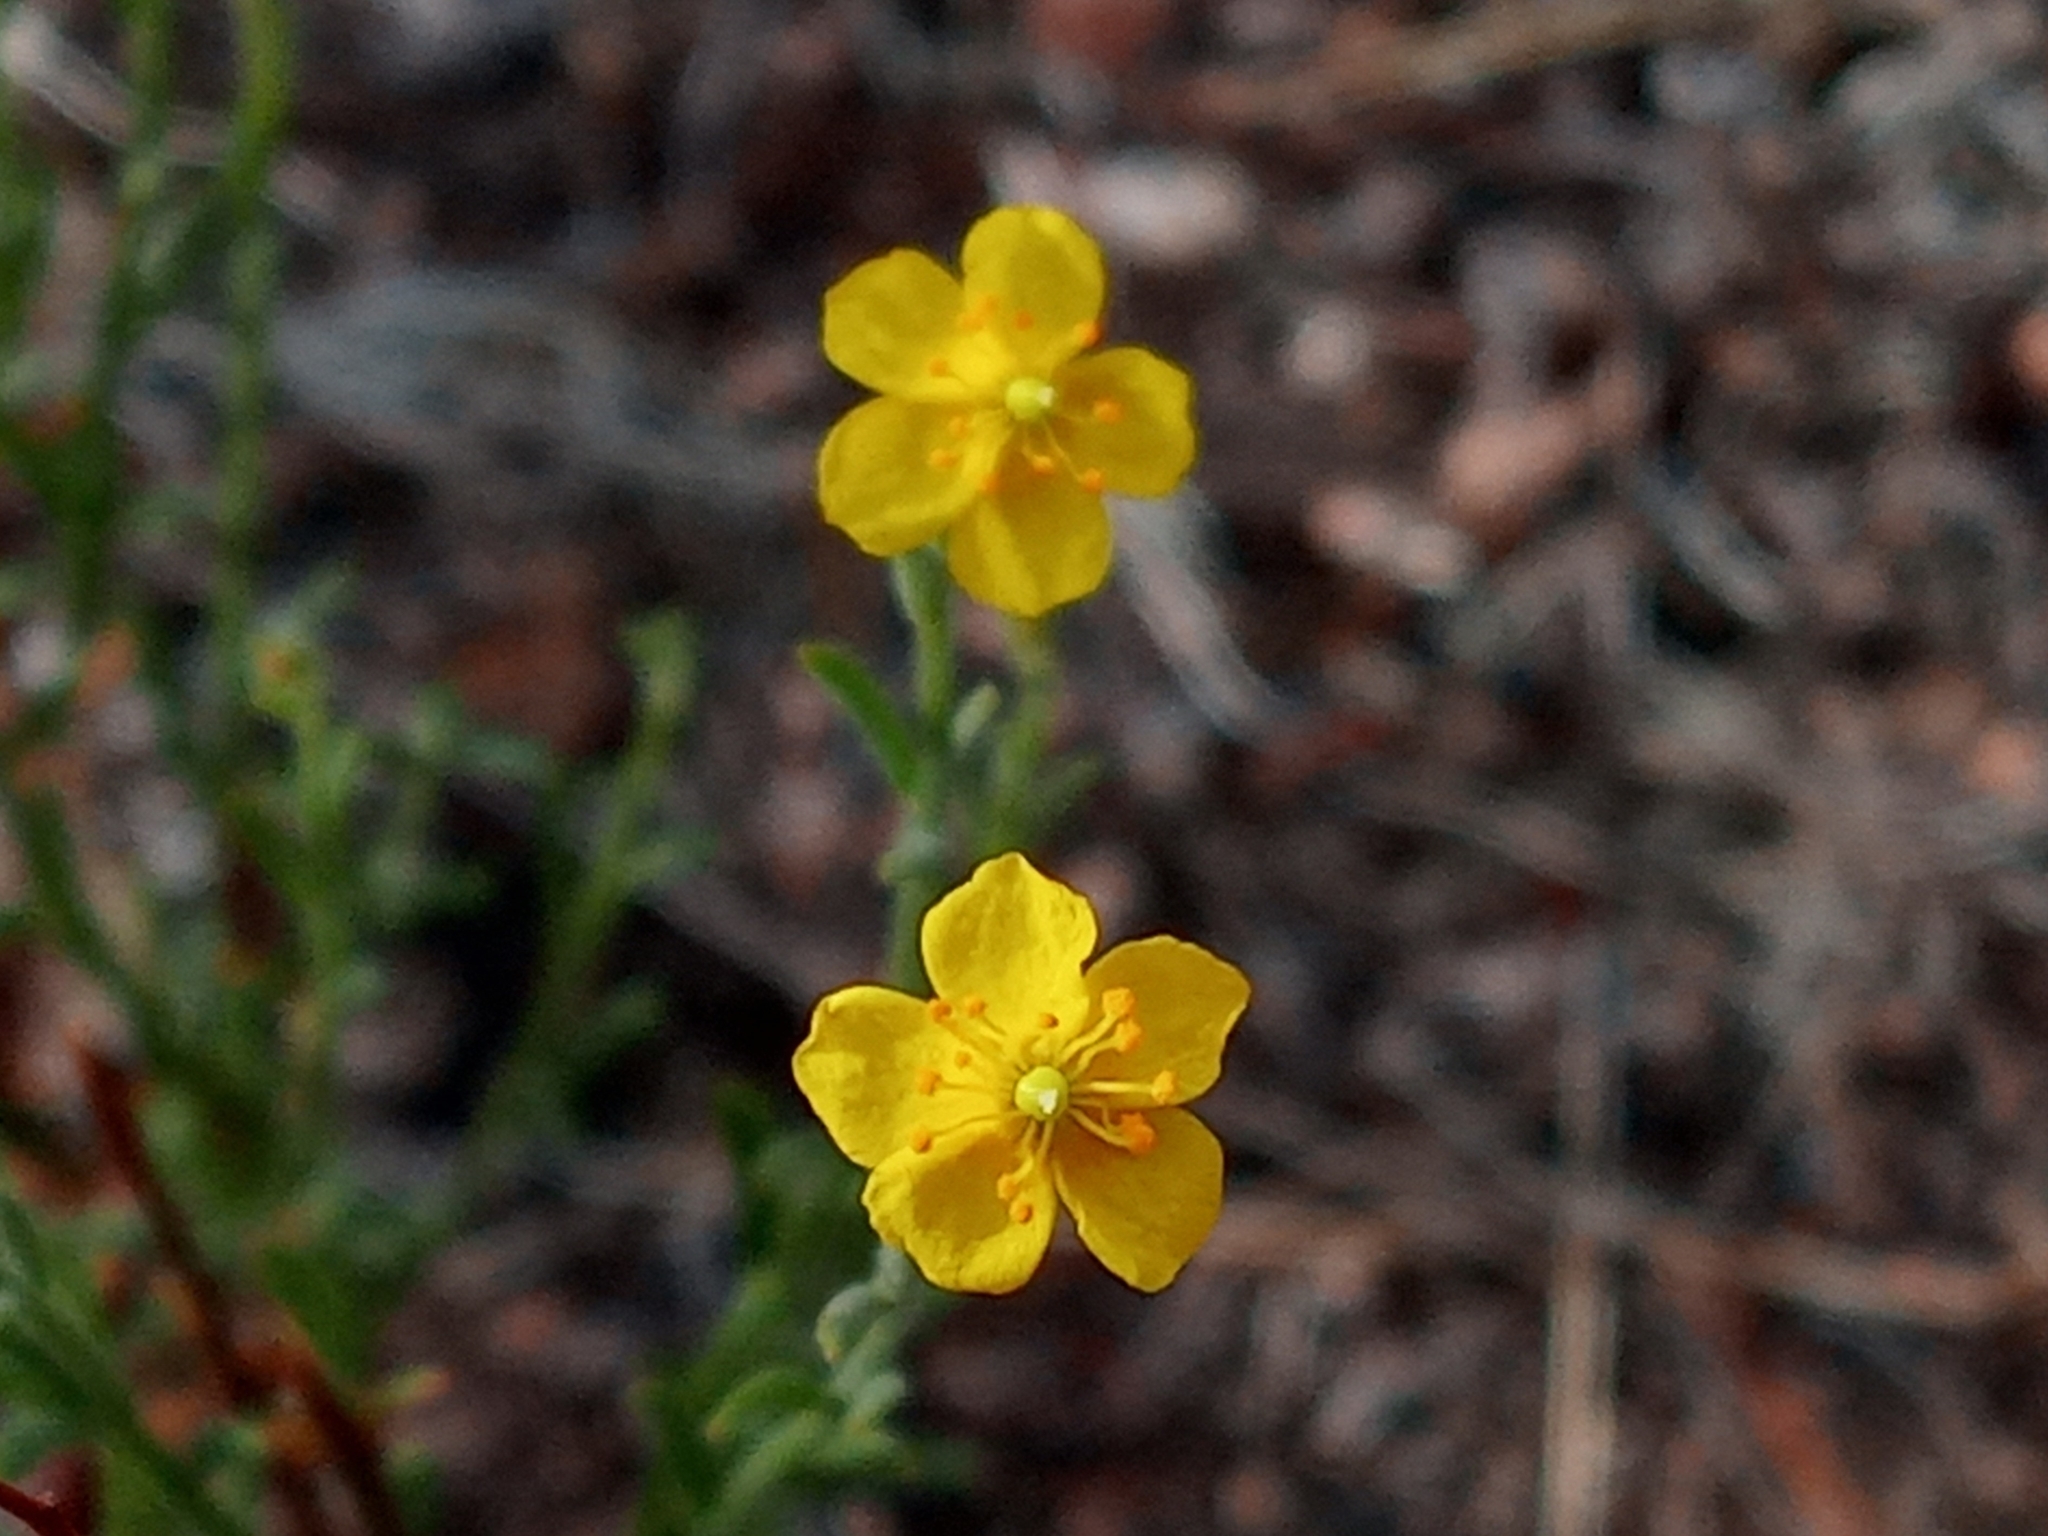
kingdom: Plantae
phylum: Tracheophyta
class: Magnoliopsida
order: Malvales
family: Cistaceae
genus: Crocanthemum
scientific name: Crocanthemum scoparium
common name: Broom-rose
